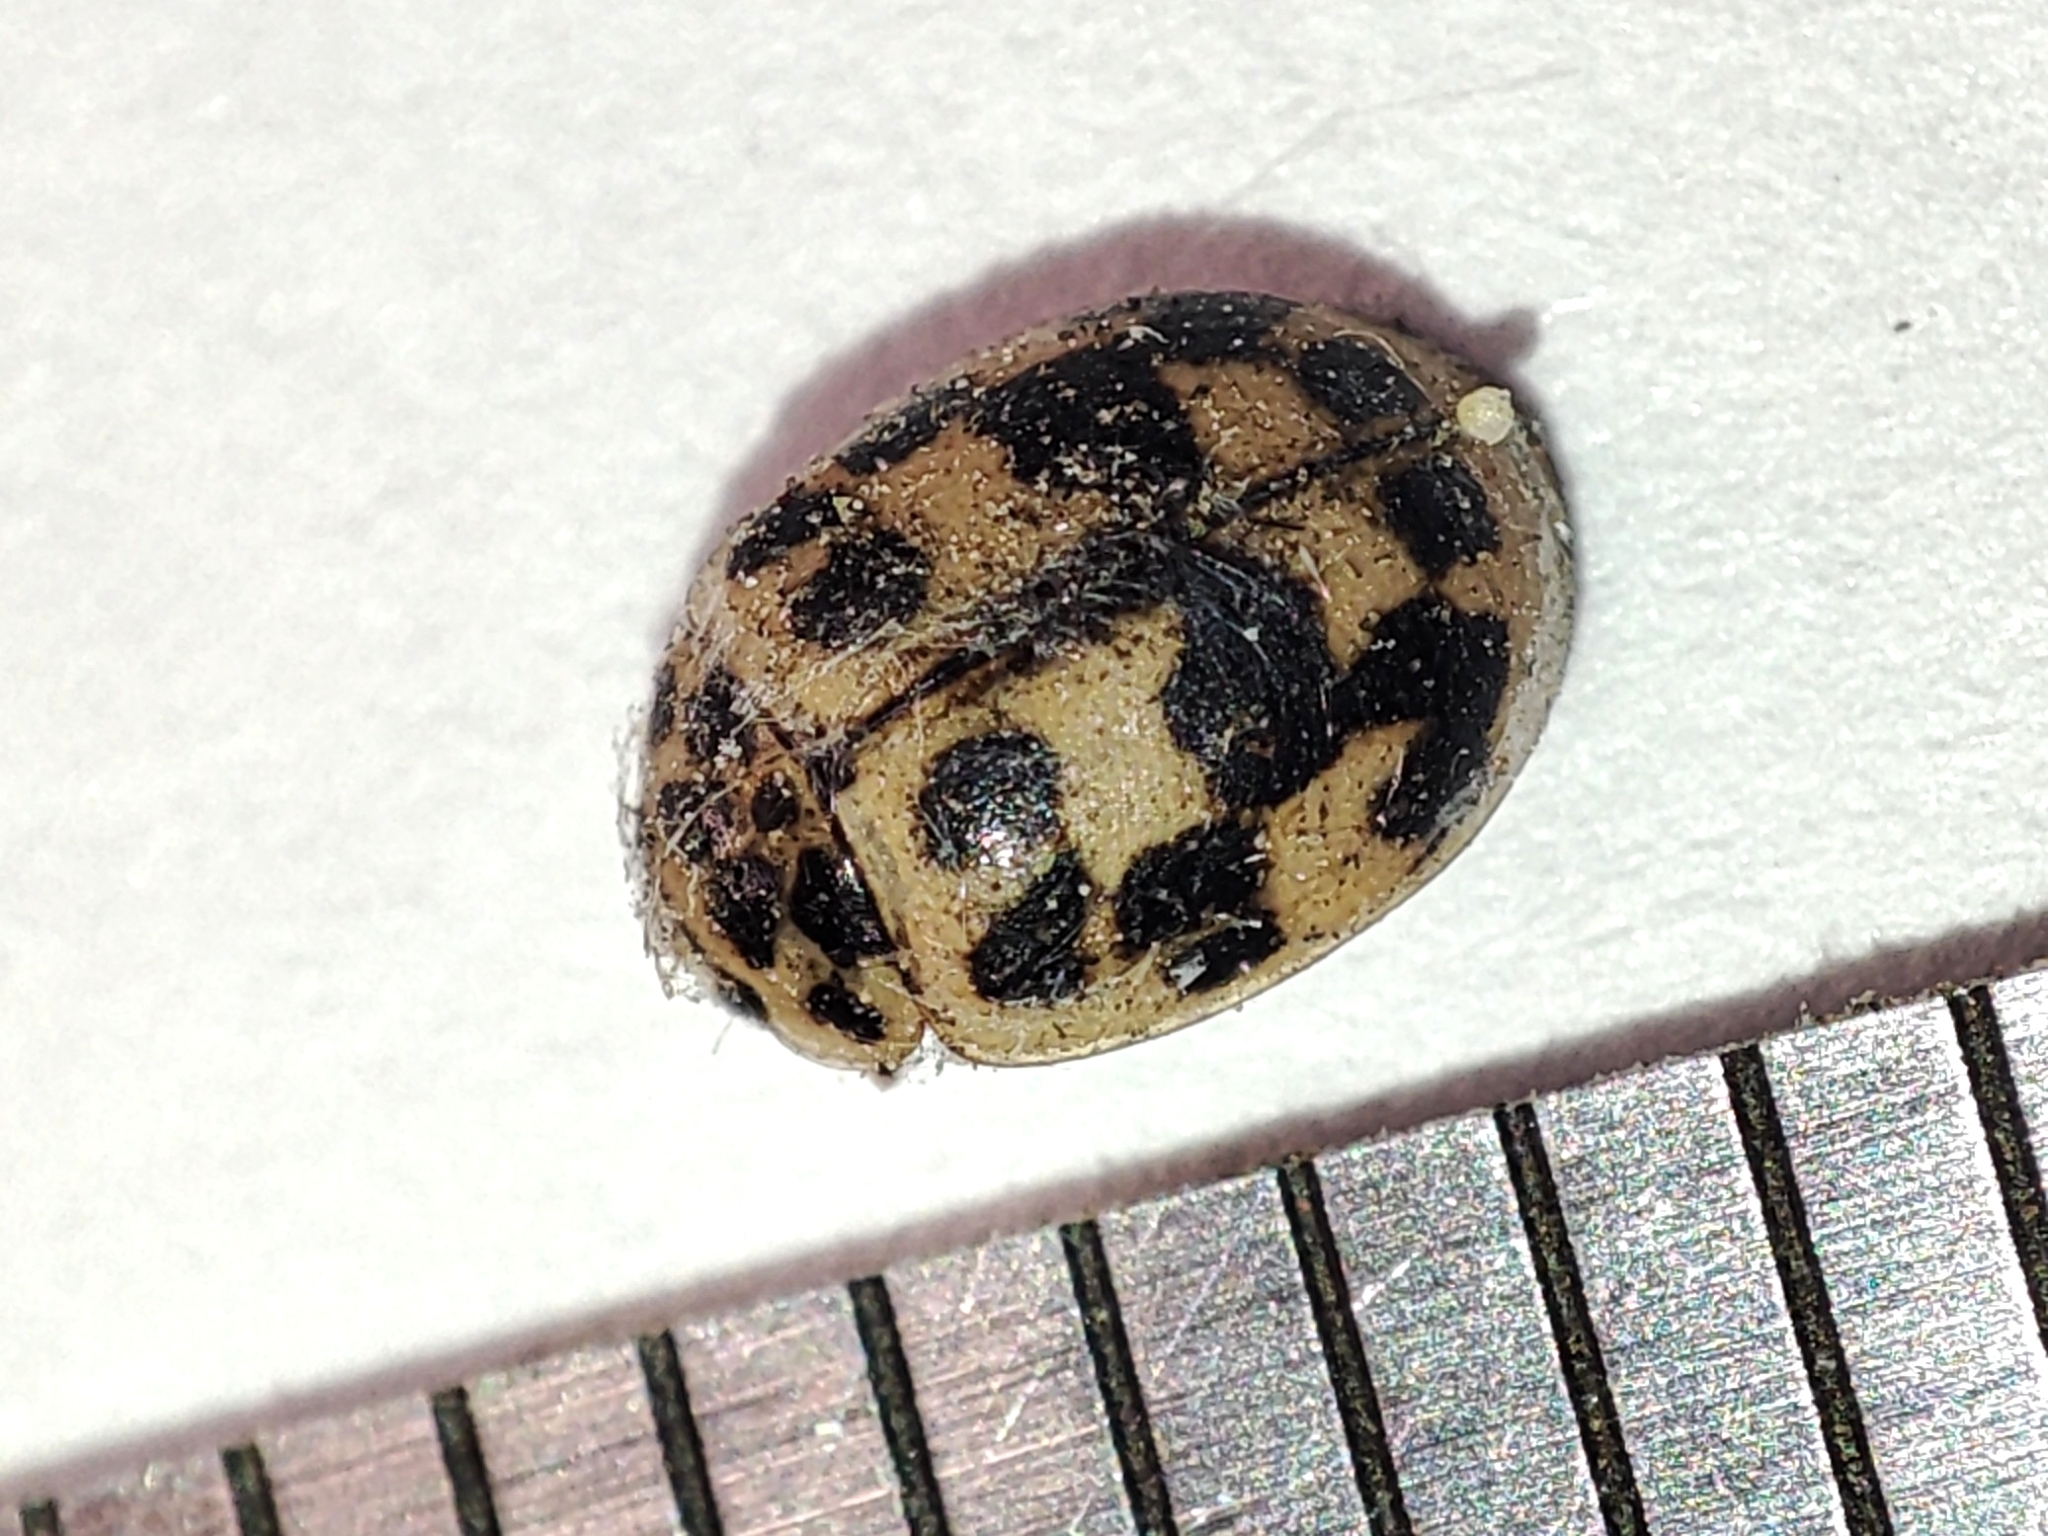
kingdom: Animalia
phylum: Arthropoda
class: Insecta
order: Coleoptera
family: Coccinellidae
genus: Oenopia
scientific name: Oenopia conglobata
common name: Ladybird beetle
